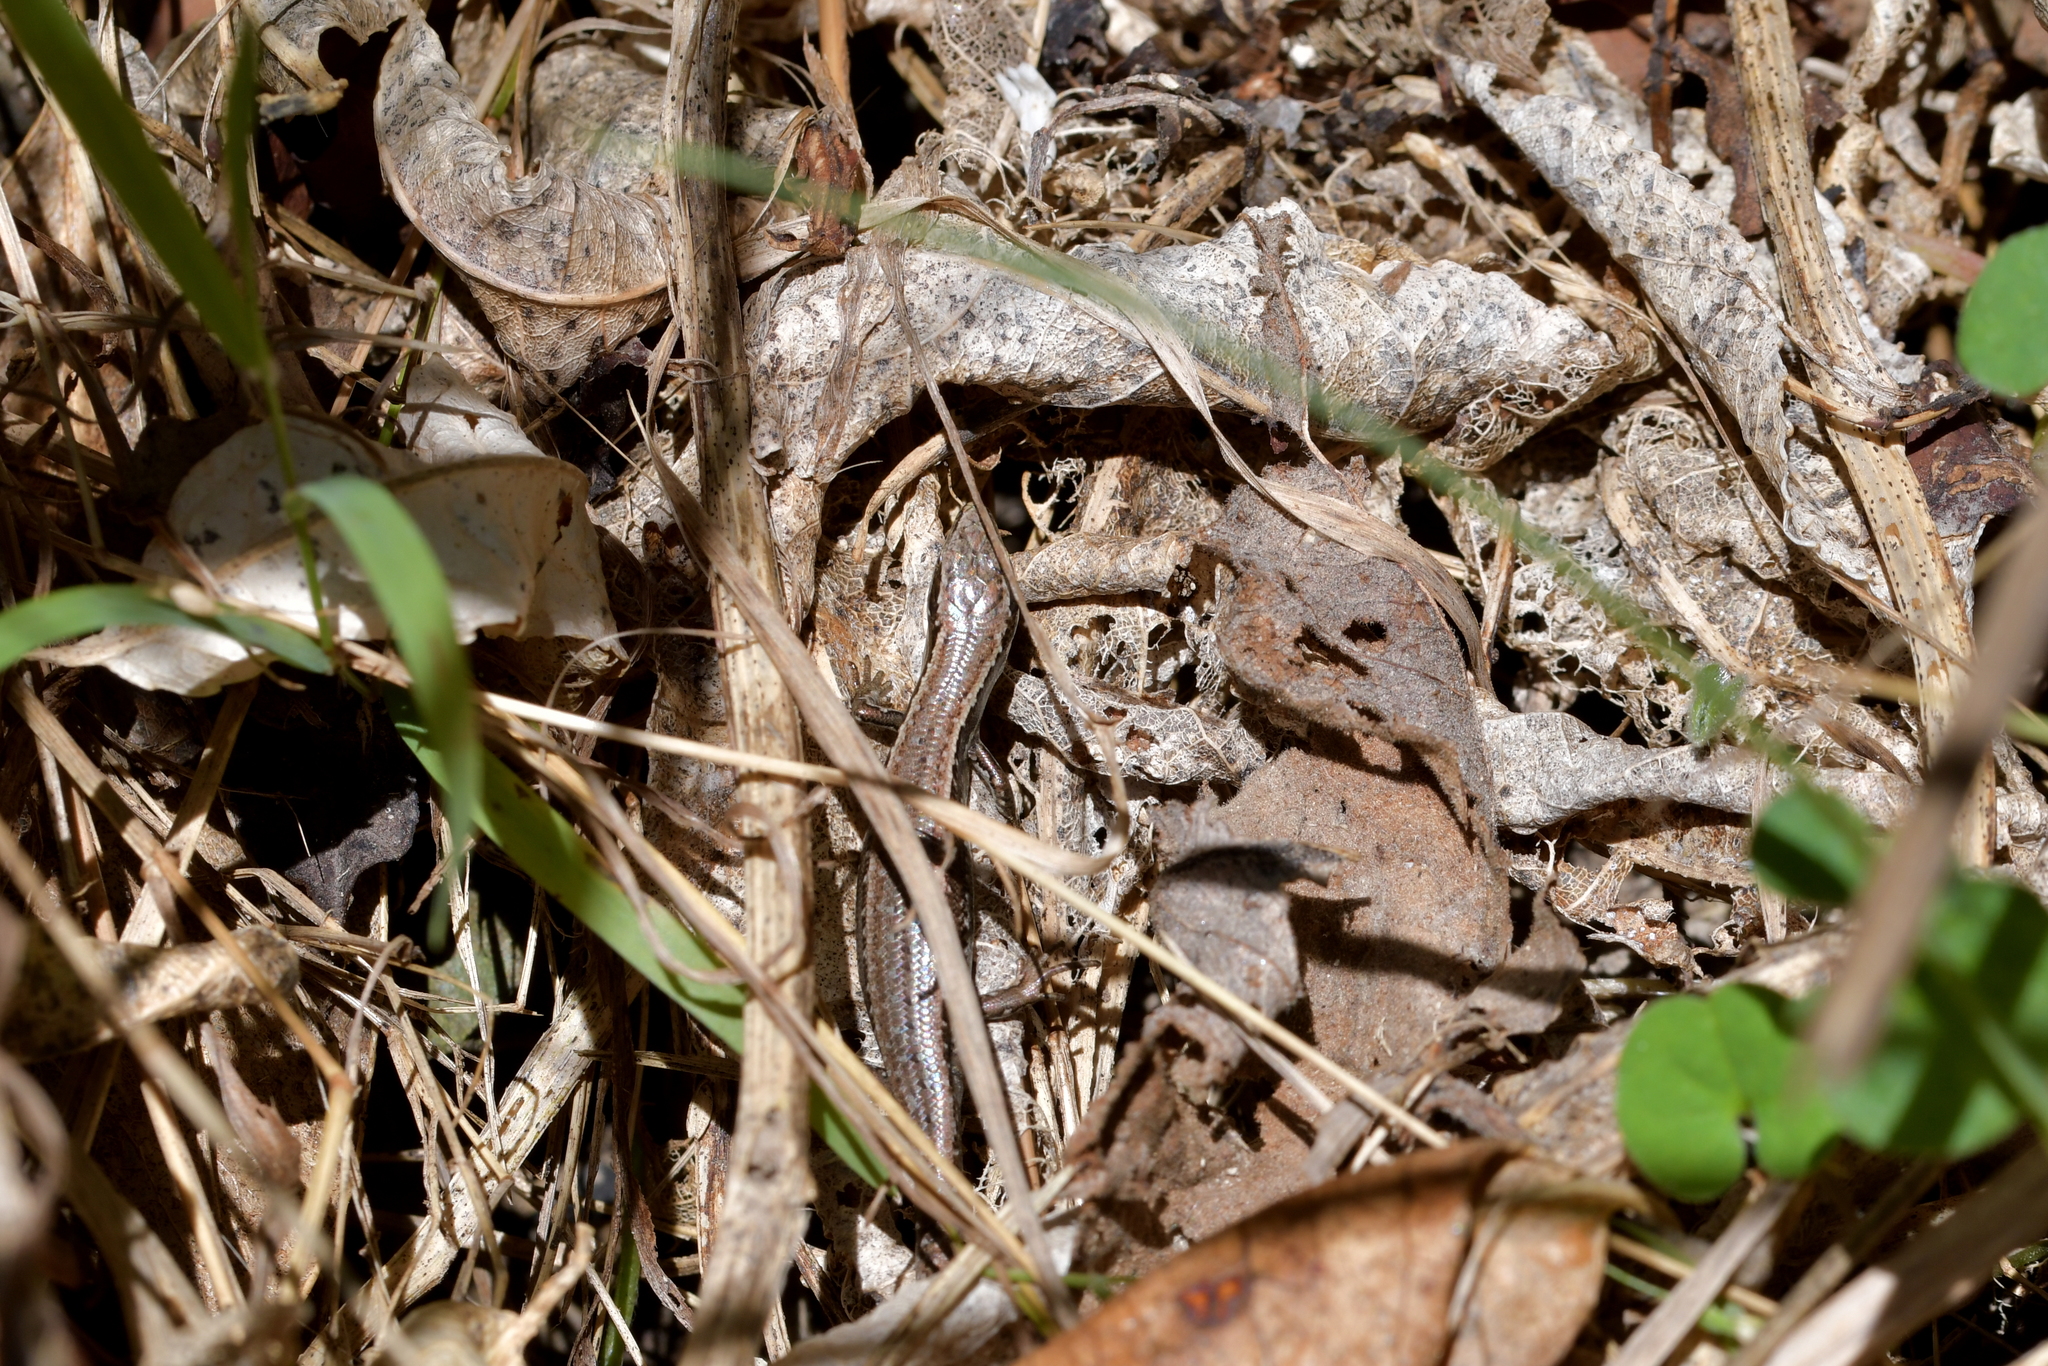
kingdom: Animalia
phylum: Chordata
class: Squamata
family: Scincidae
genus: Oligosoma
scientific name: Oligosoma polychroma
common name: Common new zealand skink
